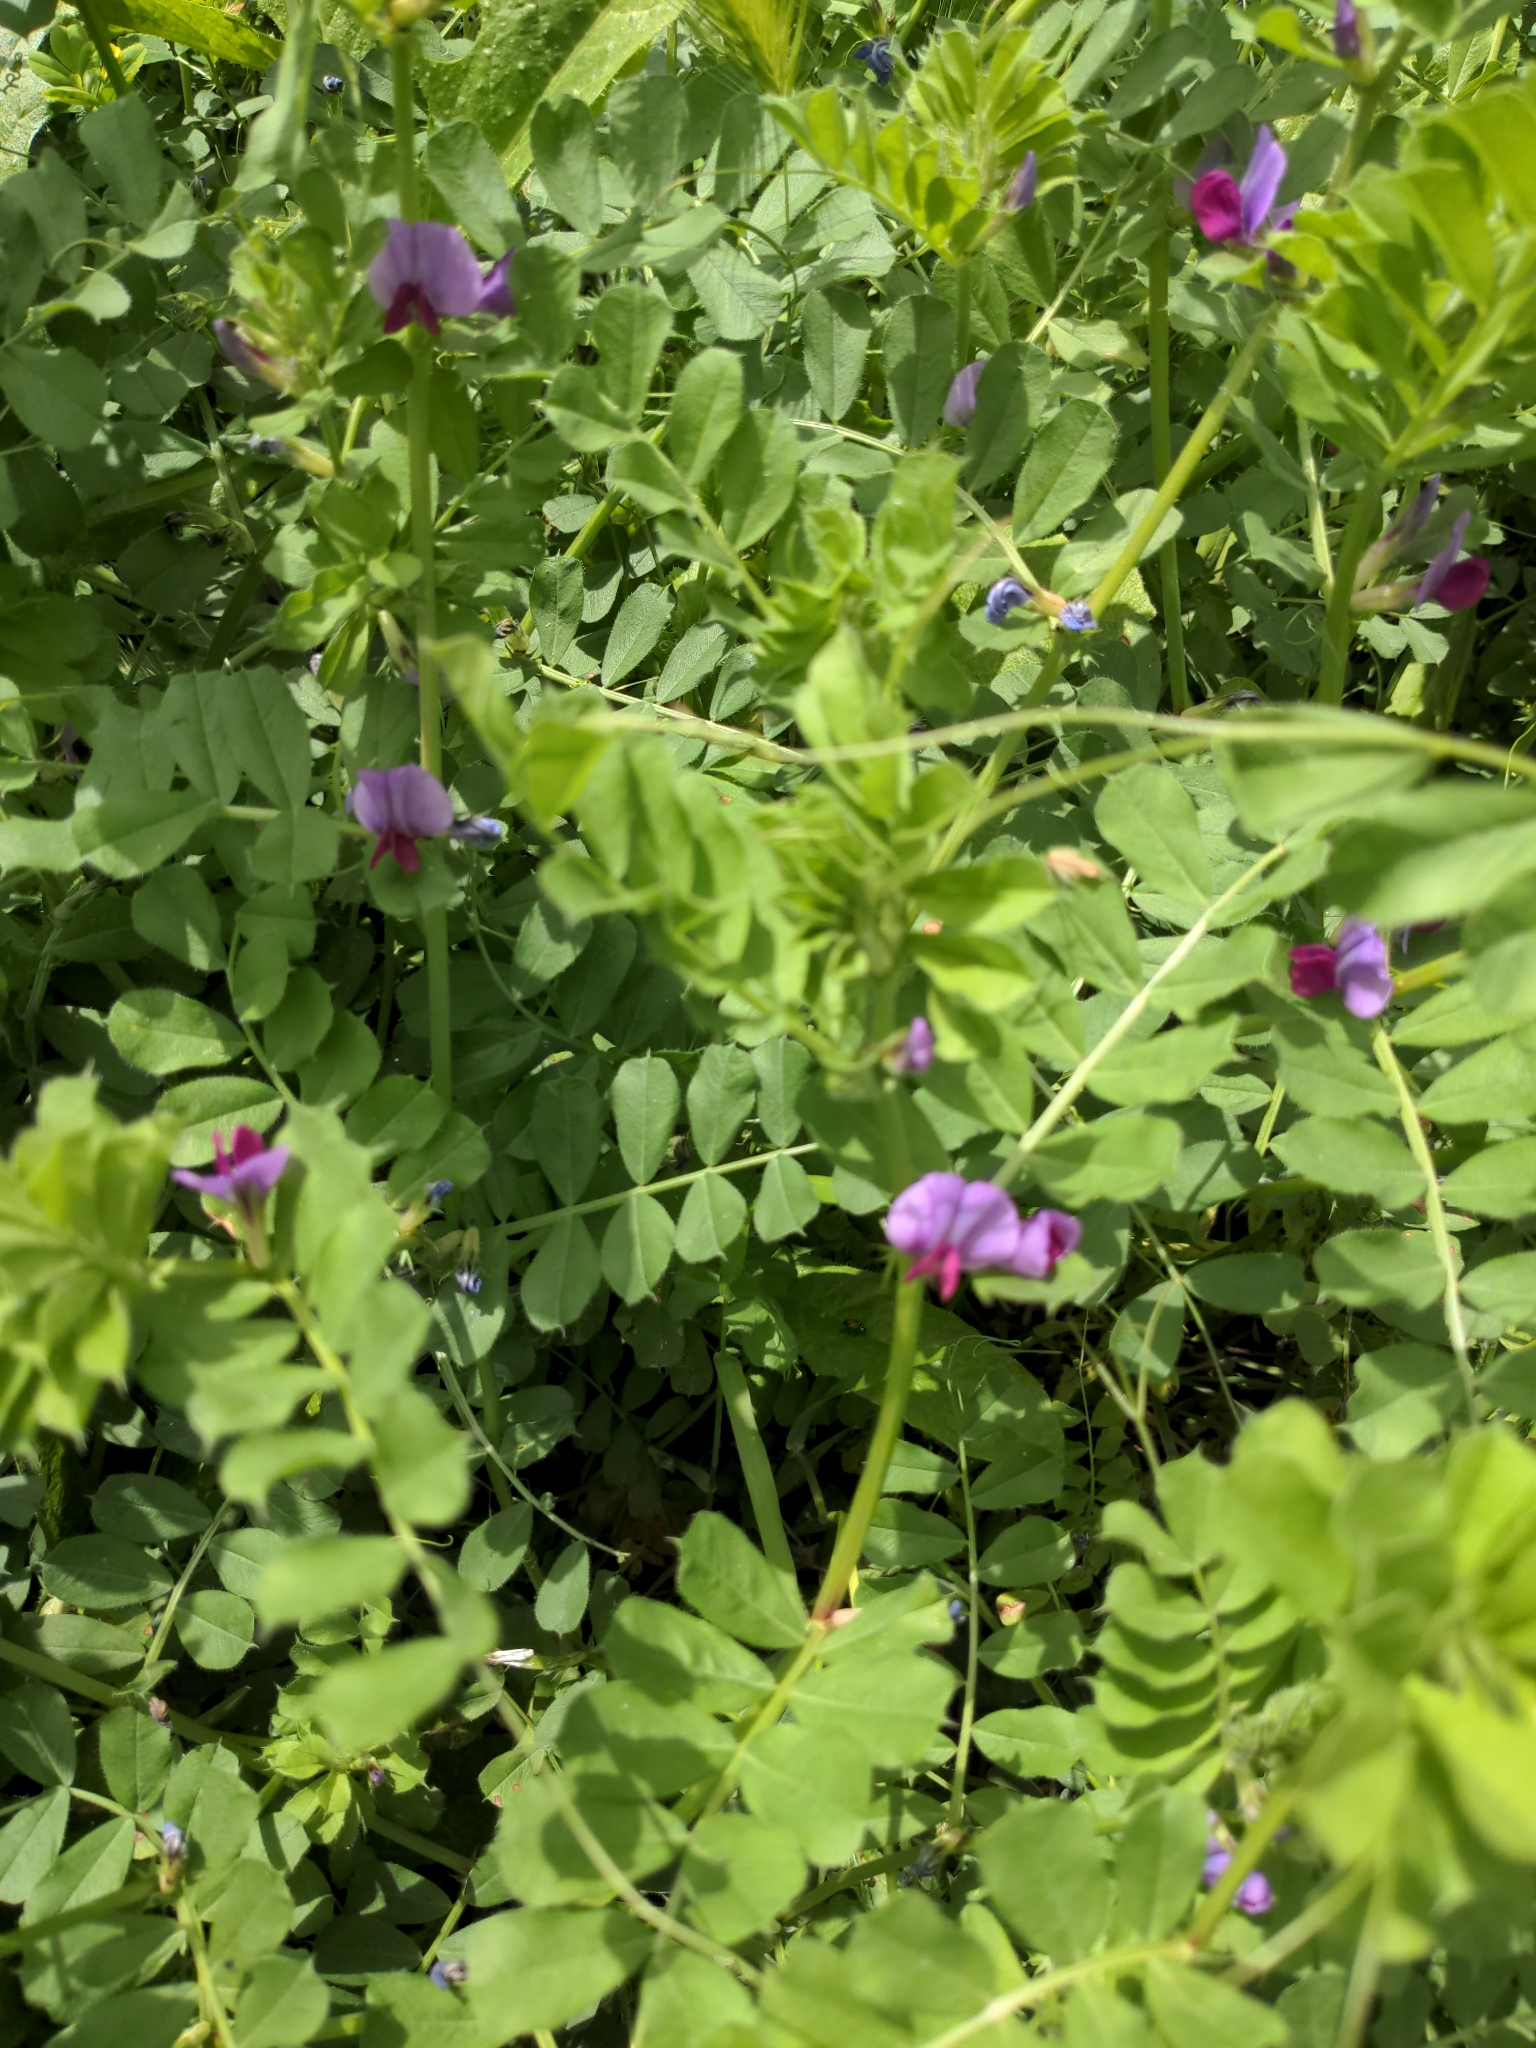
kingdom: Plantae
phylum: Tracheophyta
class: Magnoliopsida
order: Fabales
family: Fabaceae
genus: Vicia
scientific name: Vicia sativa
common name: Garden vetch
